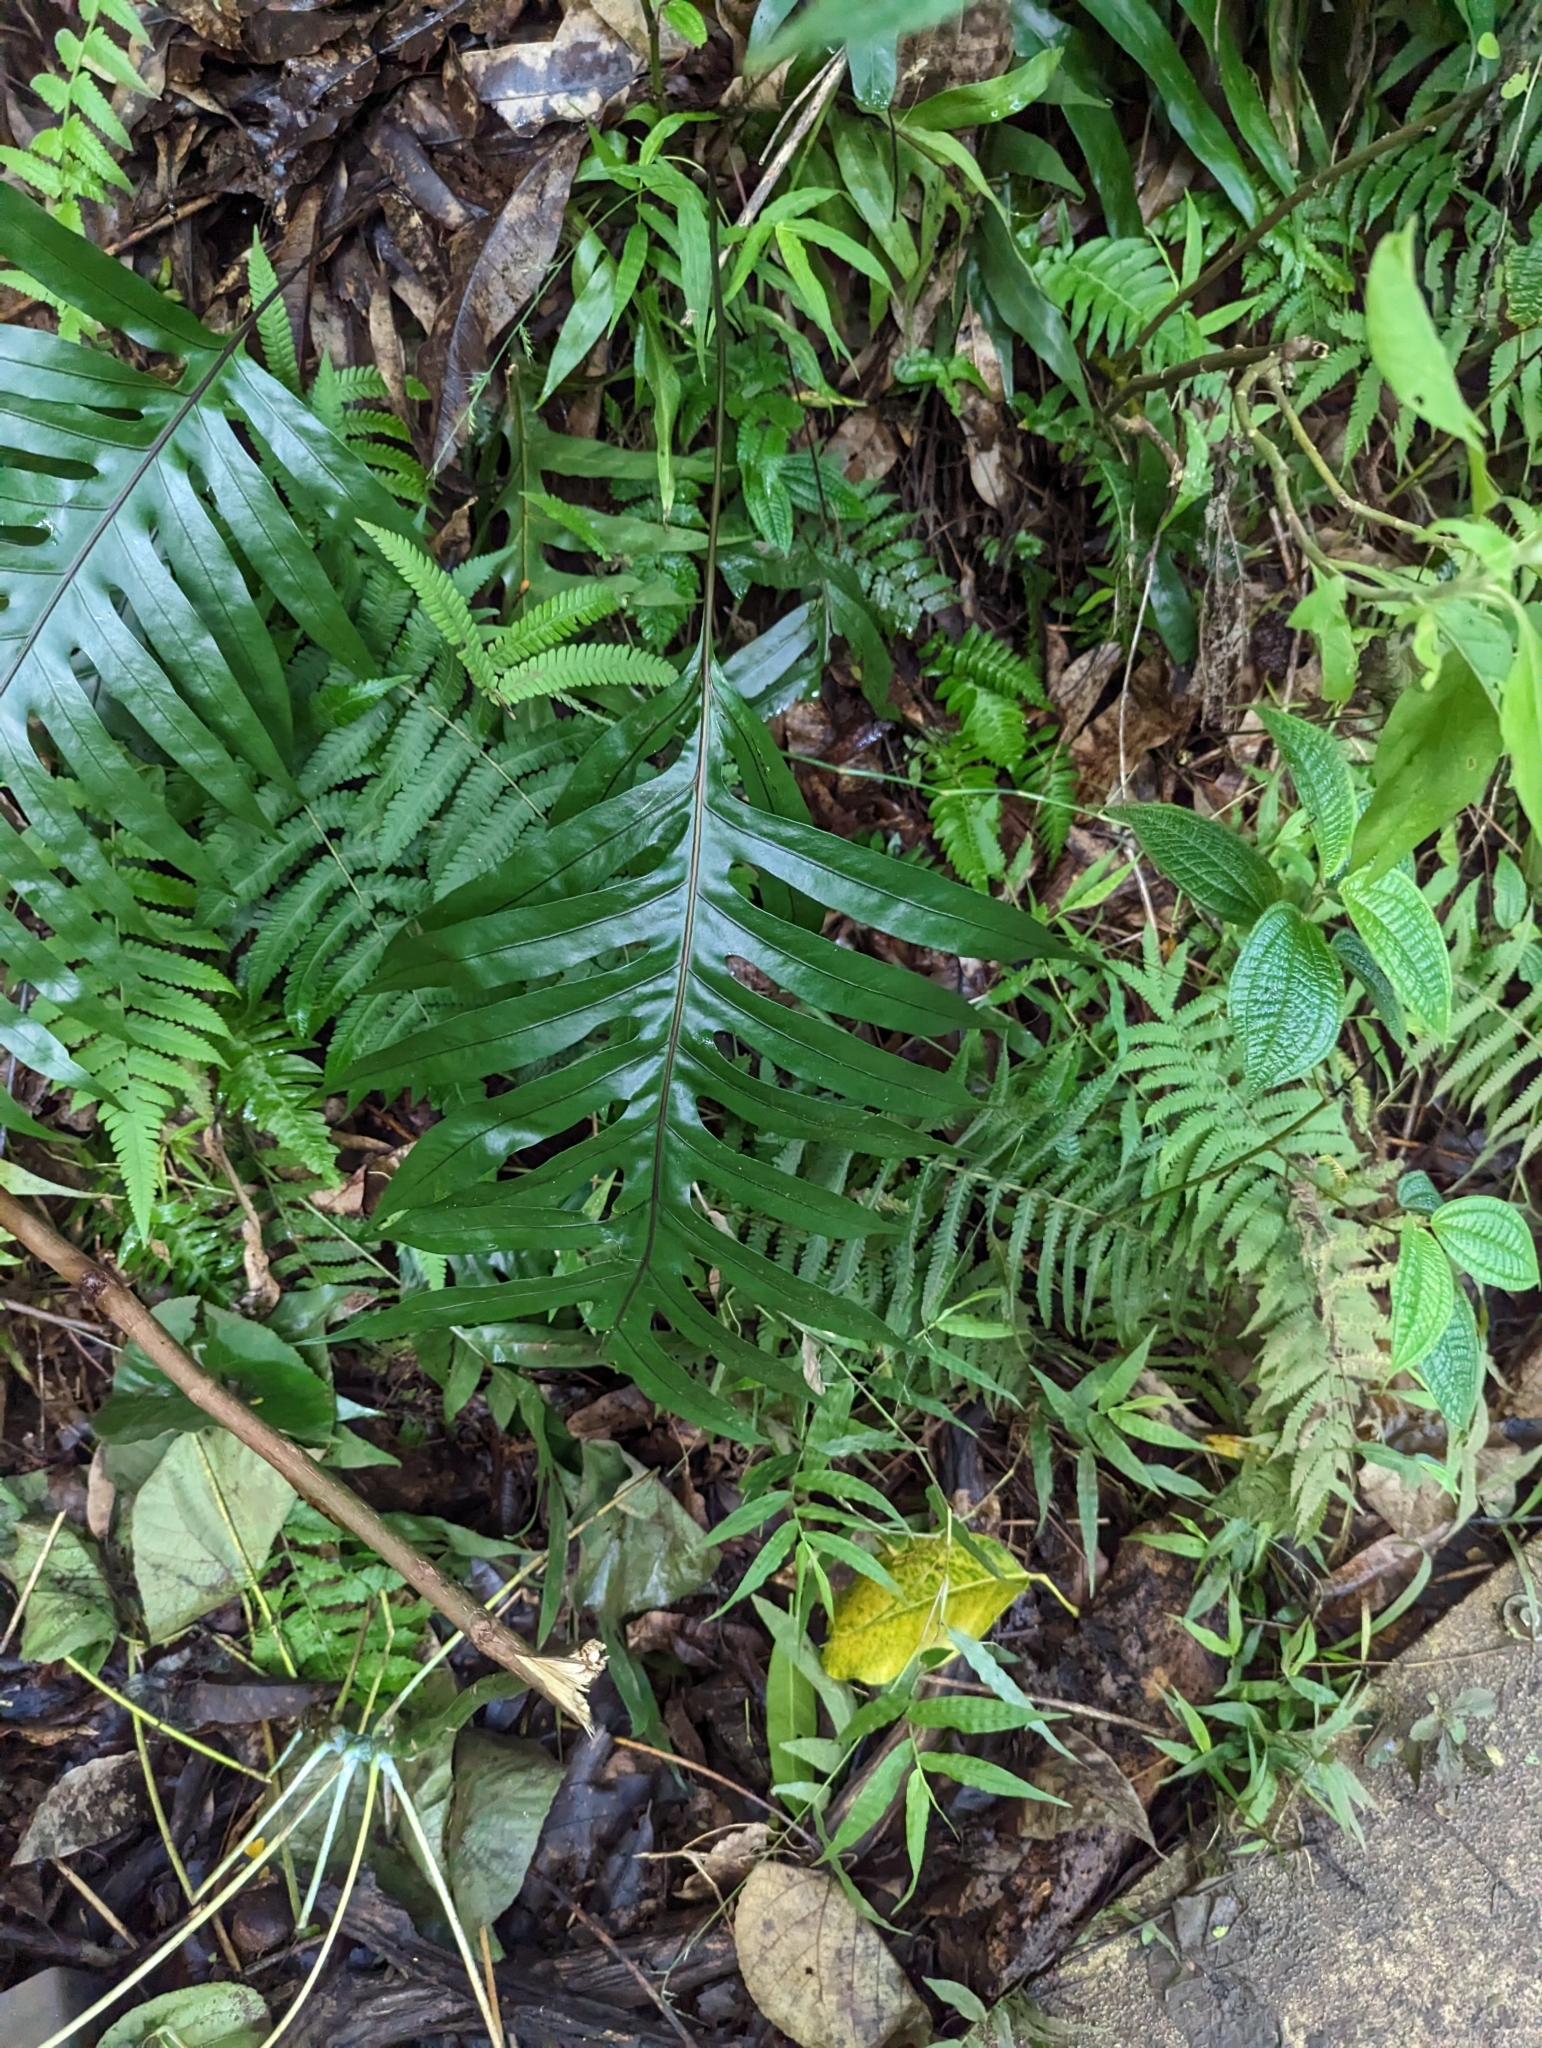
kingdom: Plantae
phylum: Tracheophyta
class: Polypodiopsida
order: Polypodiales
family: Polypodiaceae
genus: Microsorum
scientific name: Microsorum grossum
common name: Musk fern
